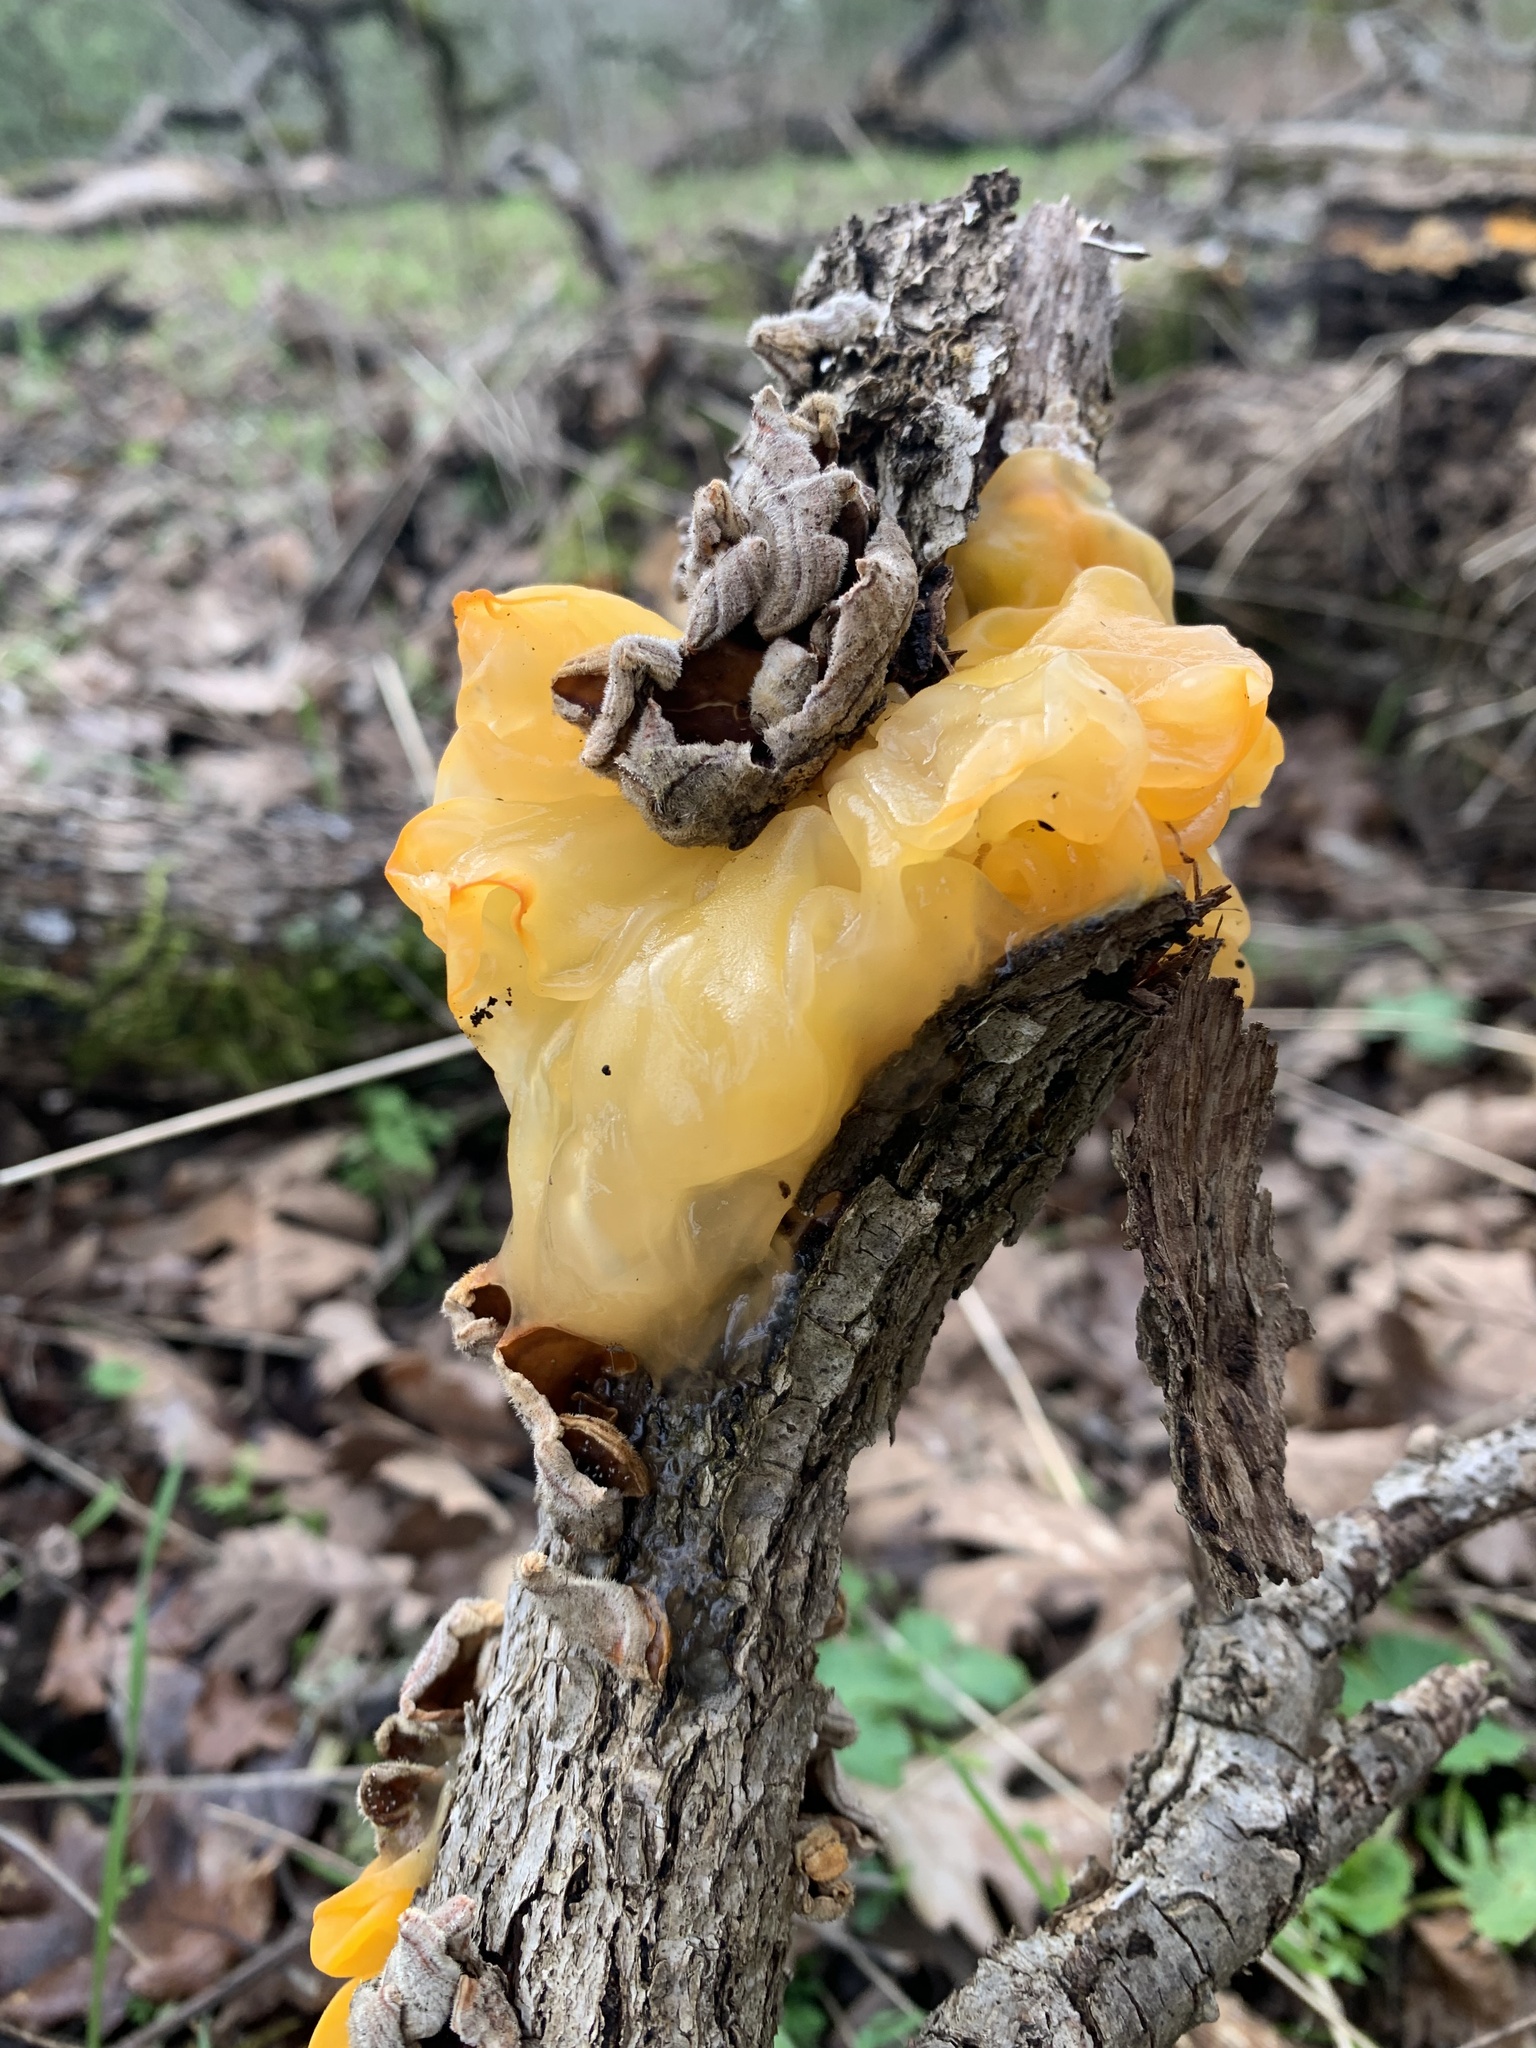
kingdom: Fungi
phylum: Basidiomycota
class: Tremellomycetes
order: Tremellales
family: Naemateliaceae
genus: Naematelia
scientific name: Naematelia aurantia
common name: Golden ear
